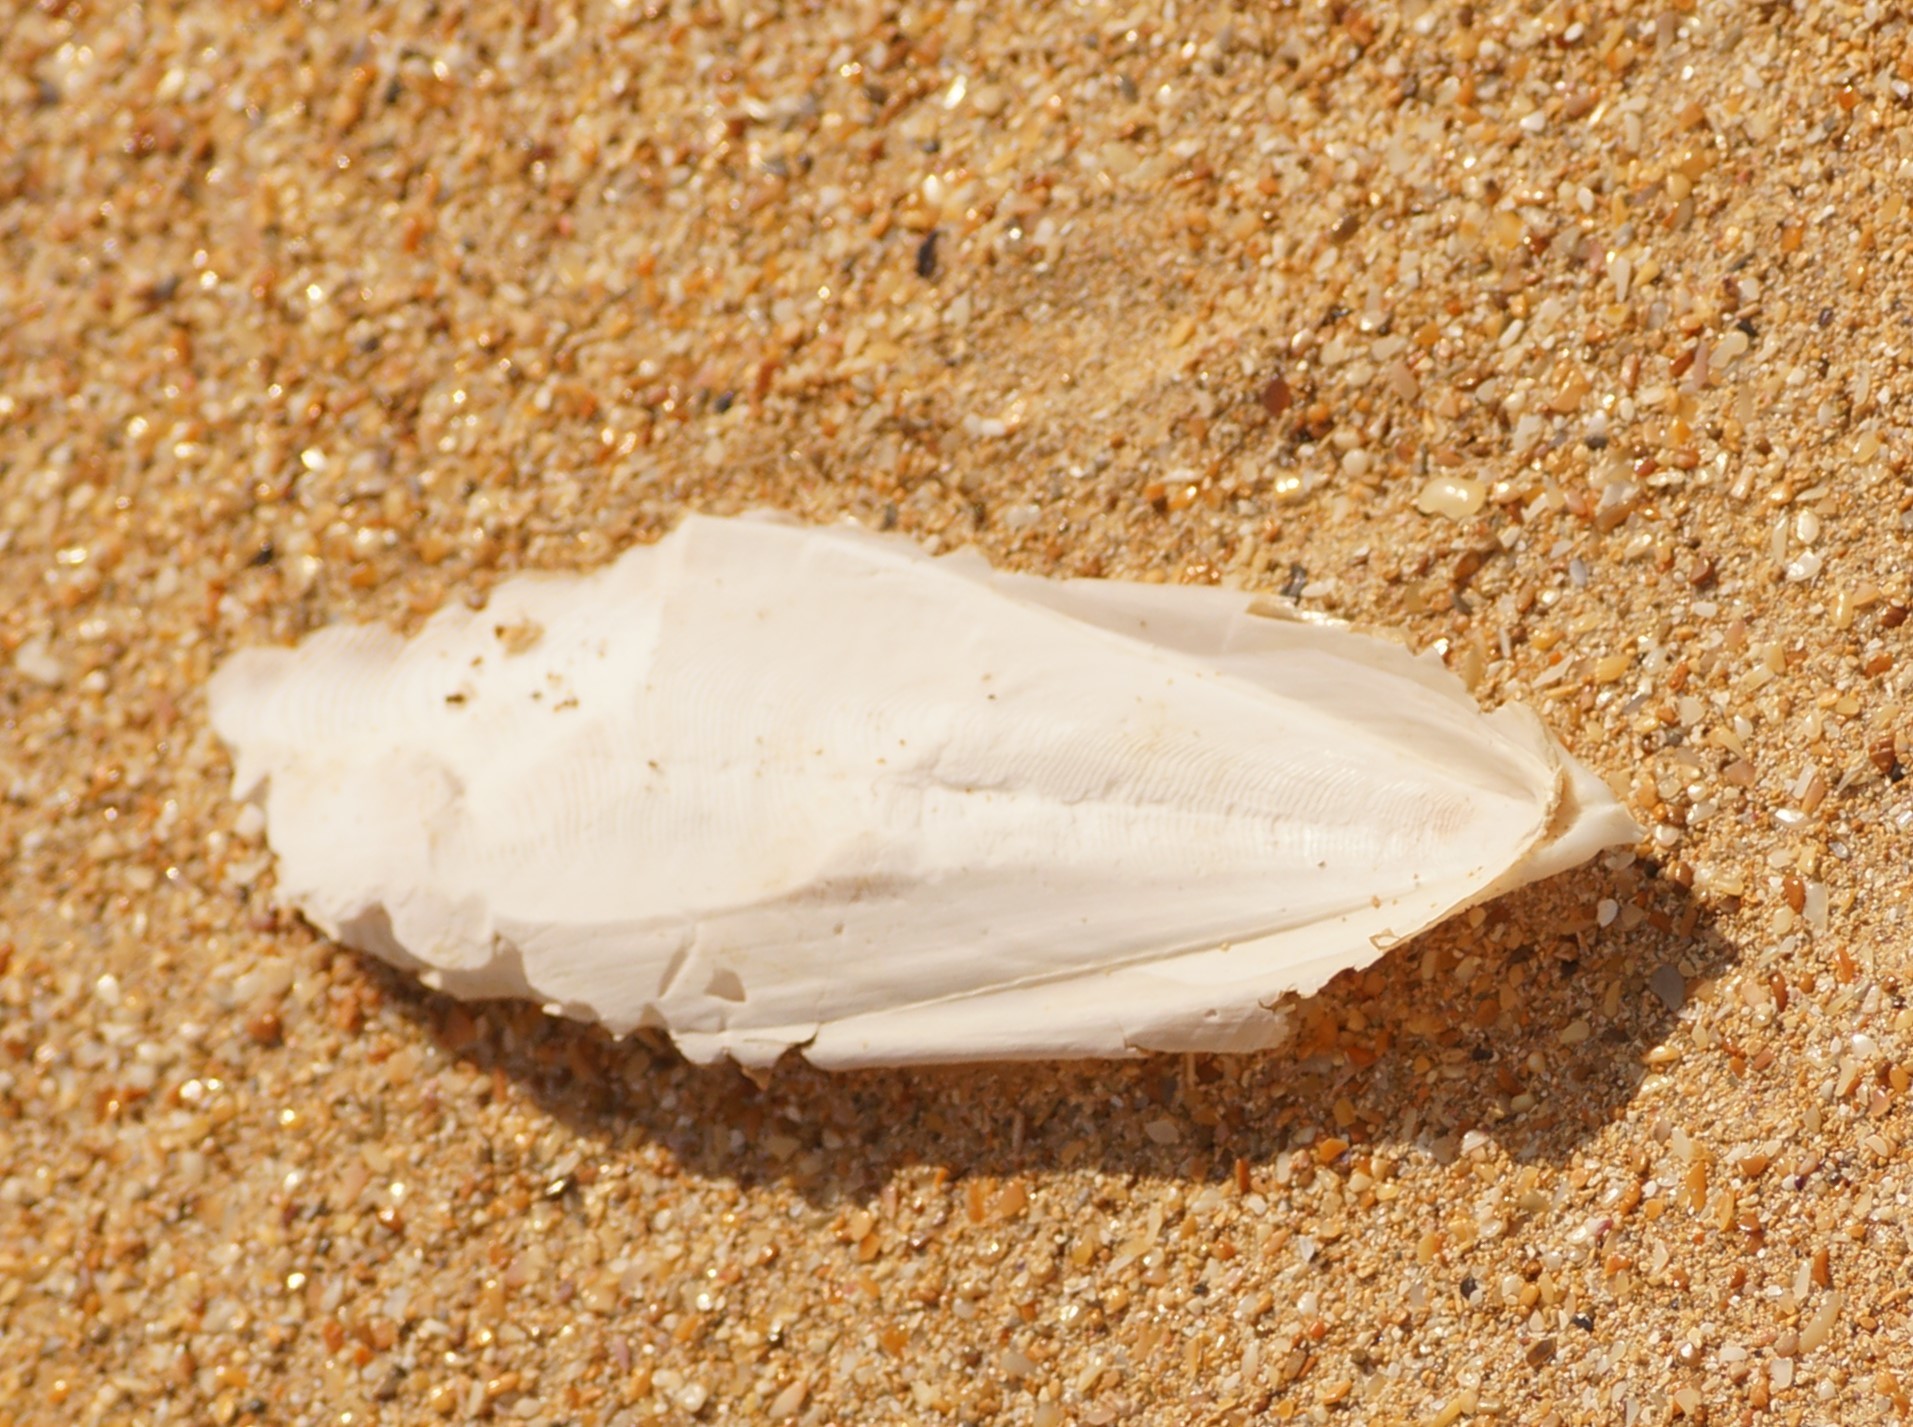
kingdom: Animalia
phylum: Mollusca
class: Cephalopoda
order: Sepiida
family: Sepiidae
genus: Ascarosepion
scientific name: Ascarosepion novaehollandiae
